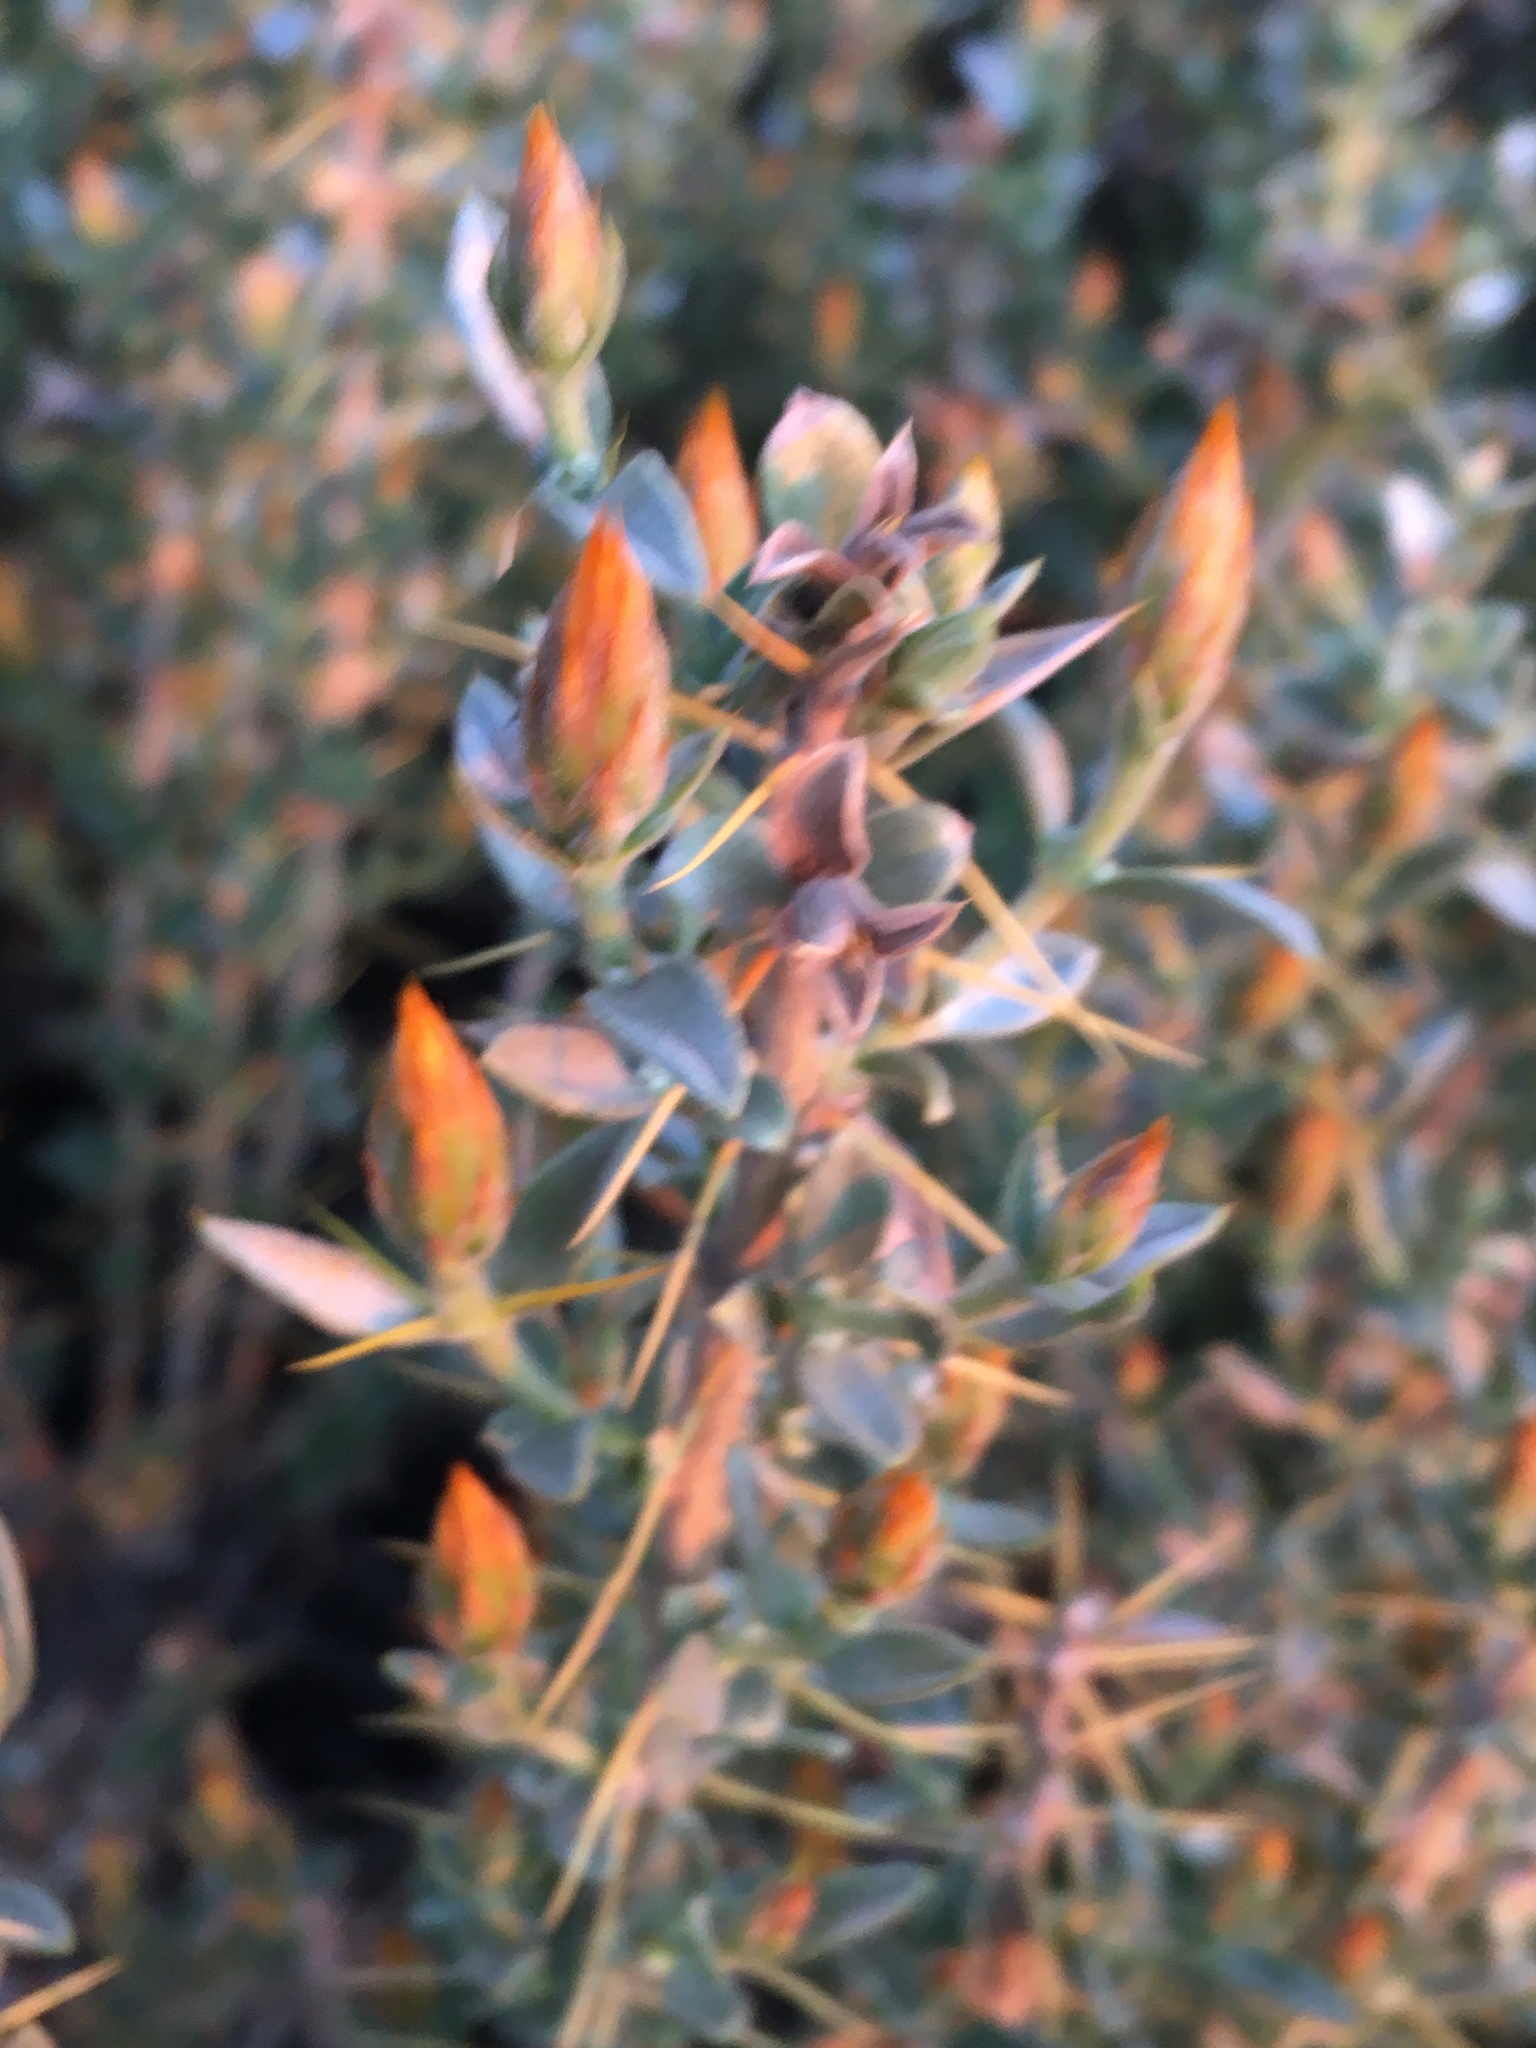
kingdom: Plantae
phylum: Tracheophyta
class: Magnoliopsida
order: Asterales
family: Asteraceae
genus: Chuquiraga
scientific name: Chuquiraga oppositifolia
